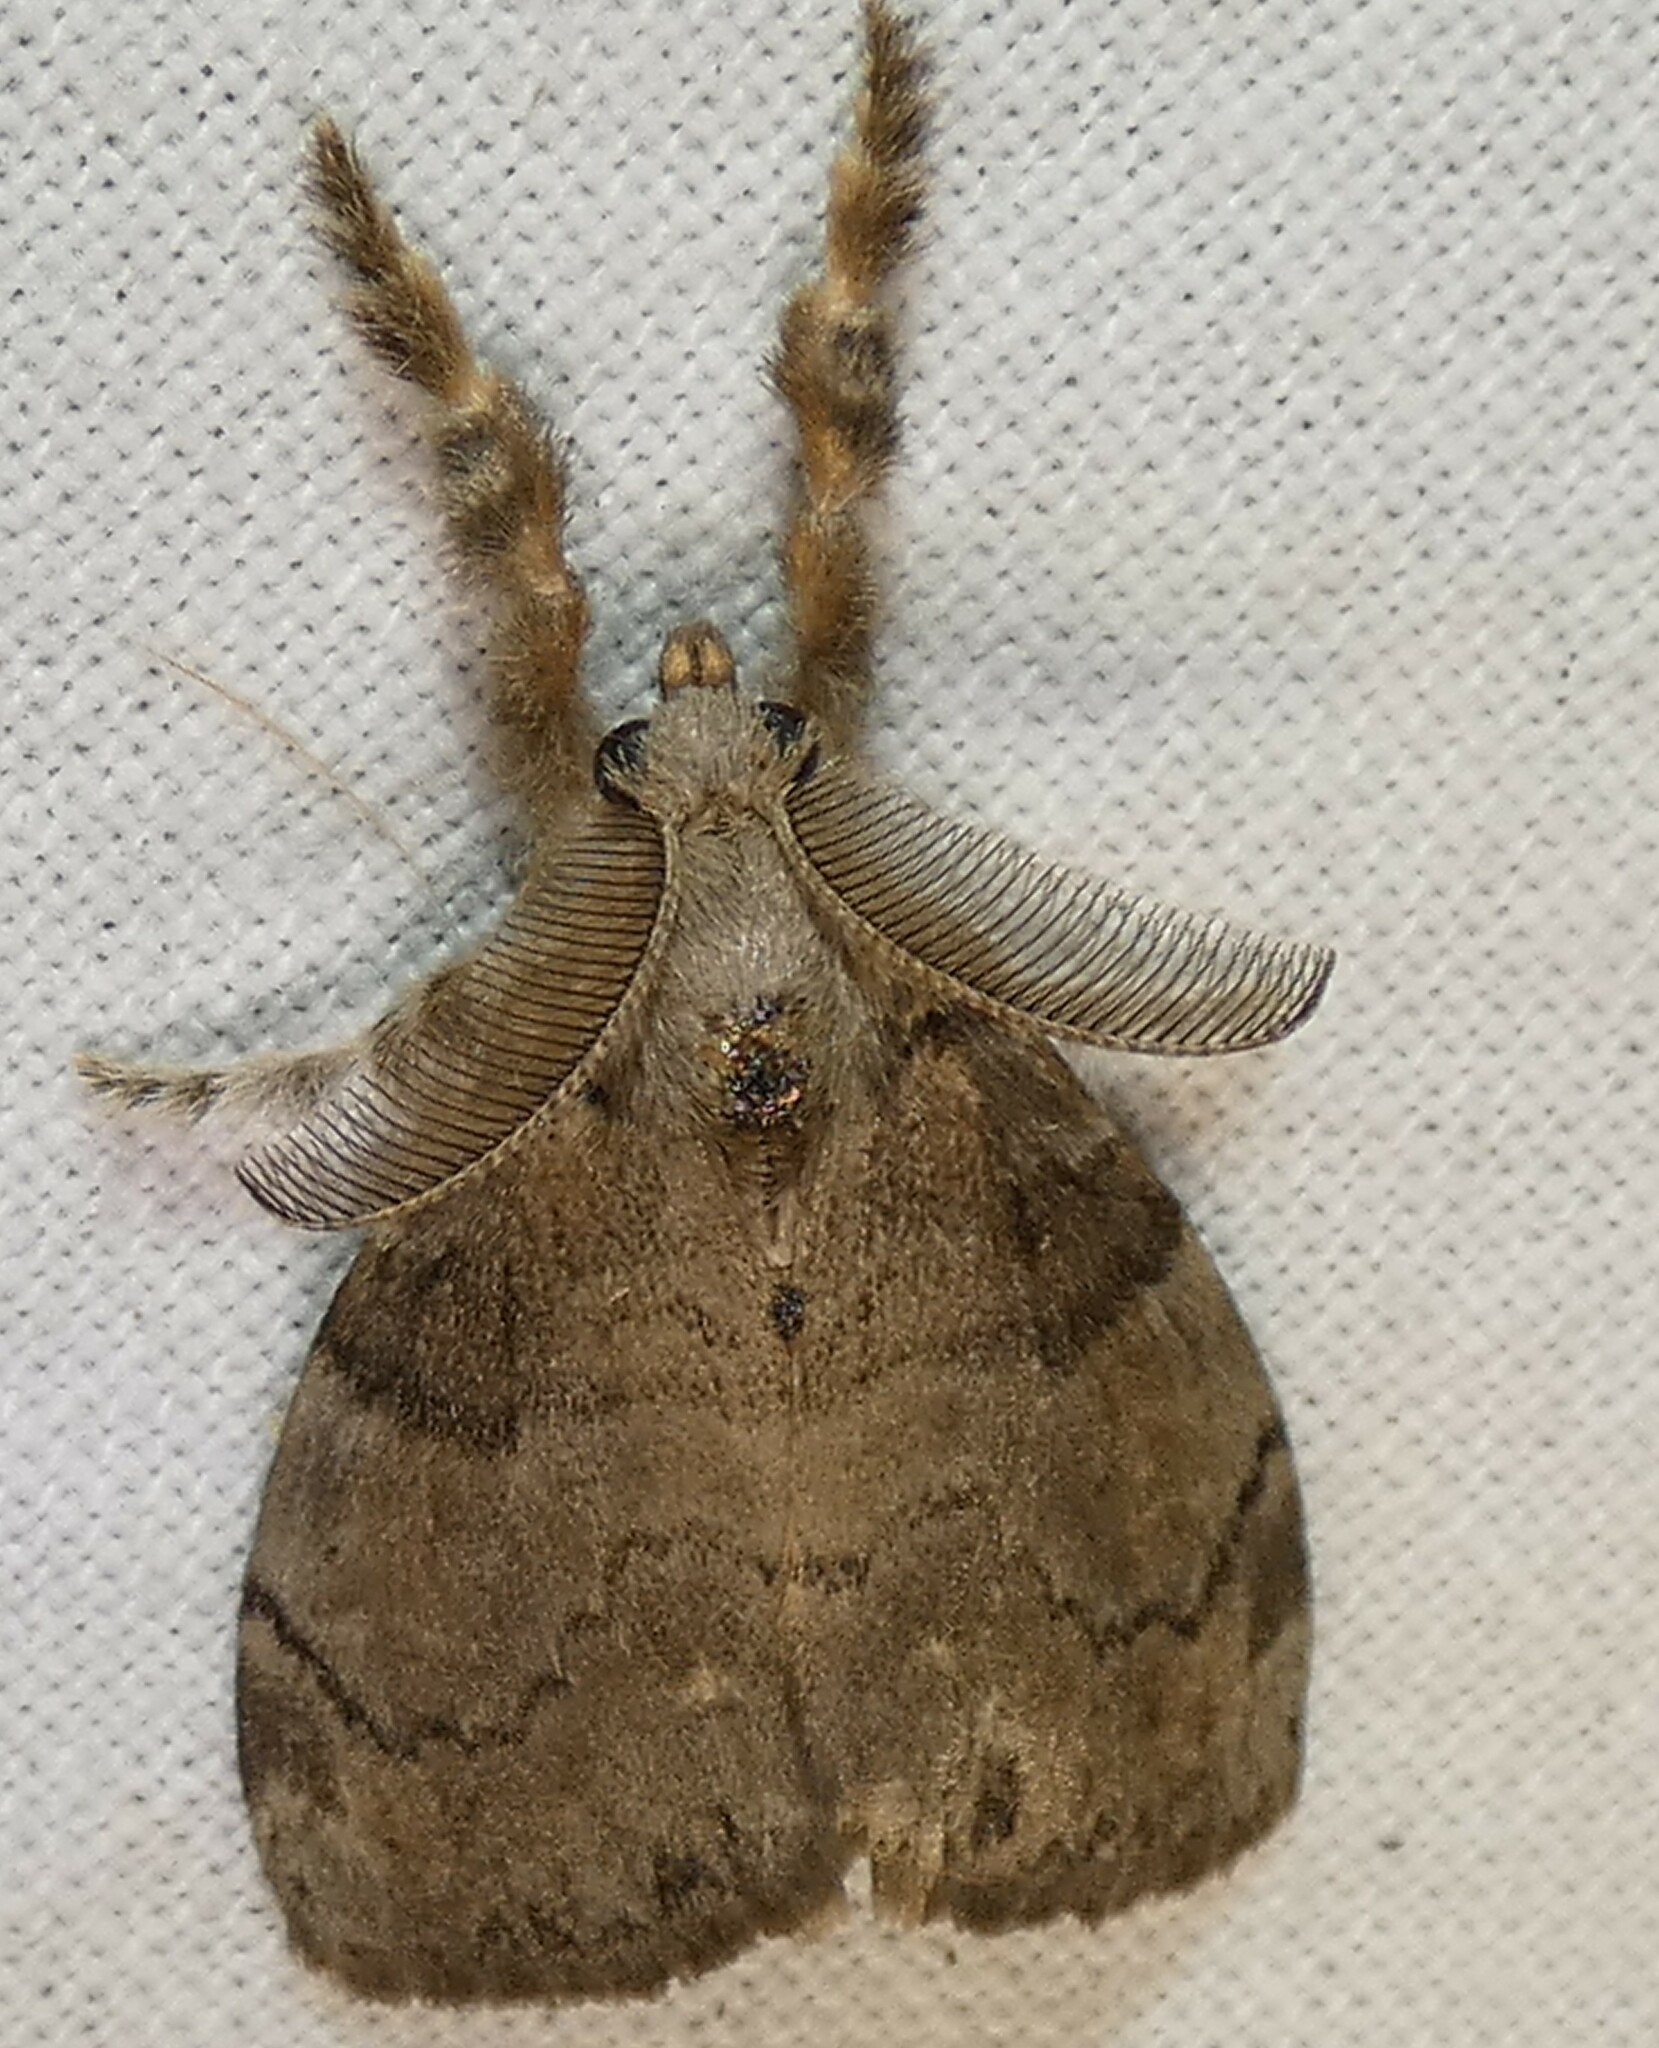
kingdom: Animalia
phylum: Arthropoda
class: Insecta
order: Lepidoptera
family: Erebidae
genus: Orgyia
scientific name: Orgyia leucostigma
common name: White-marked tussock moth
